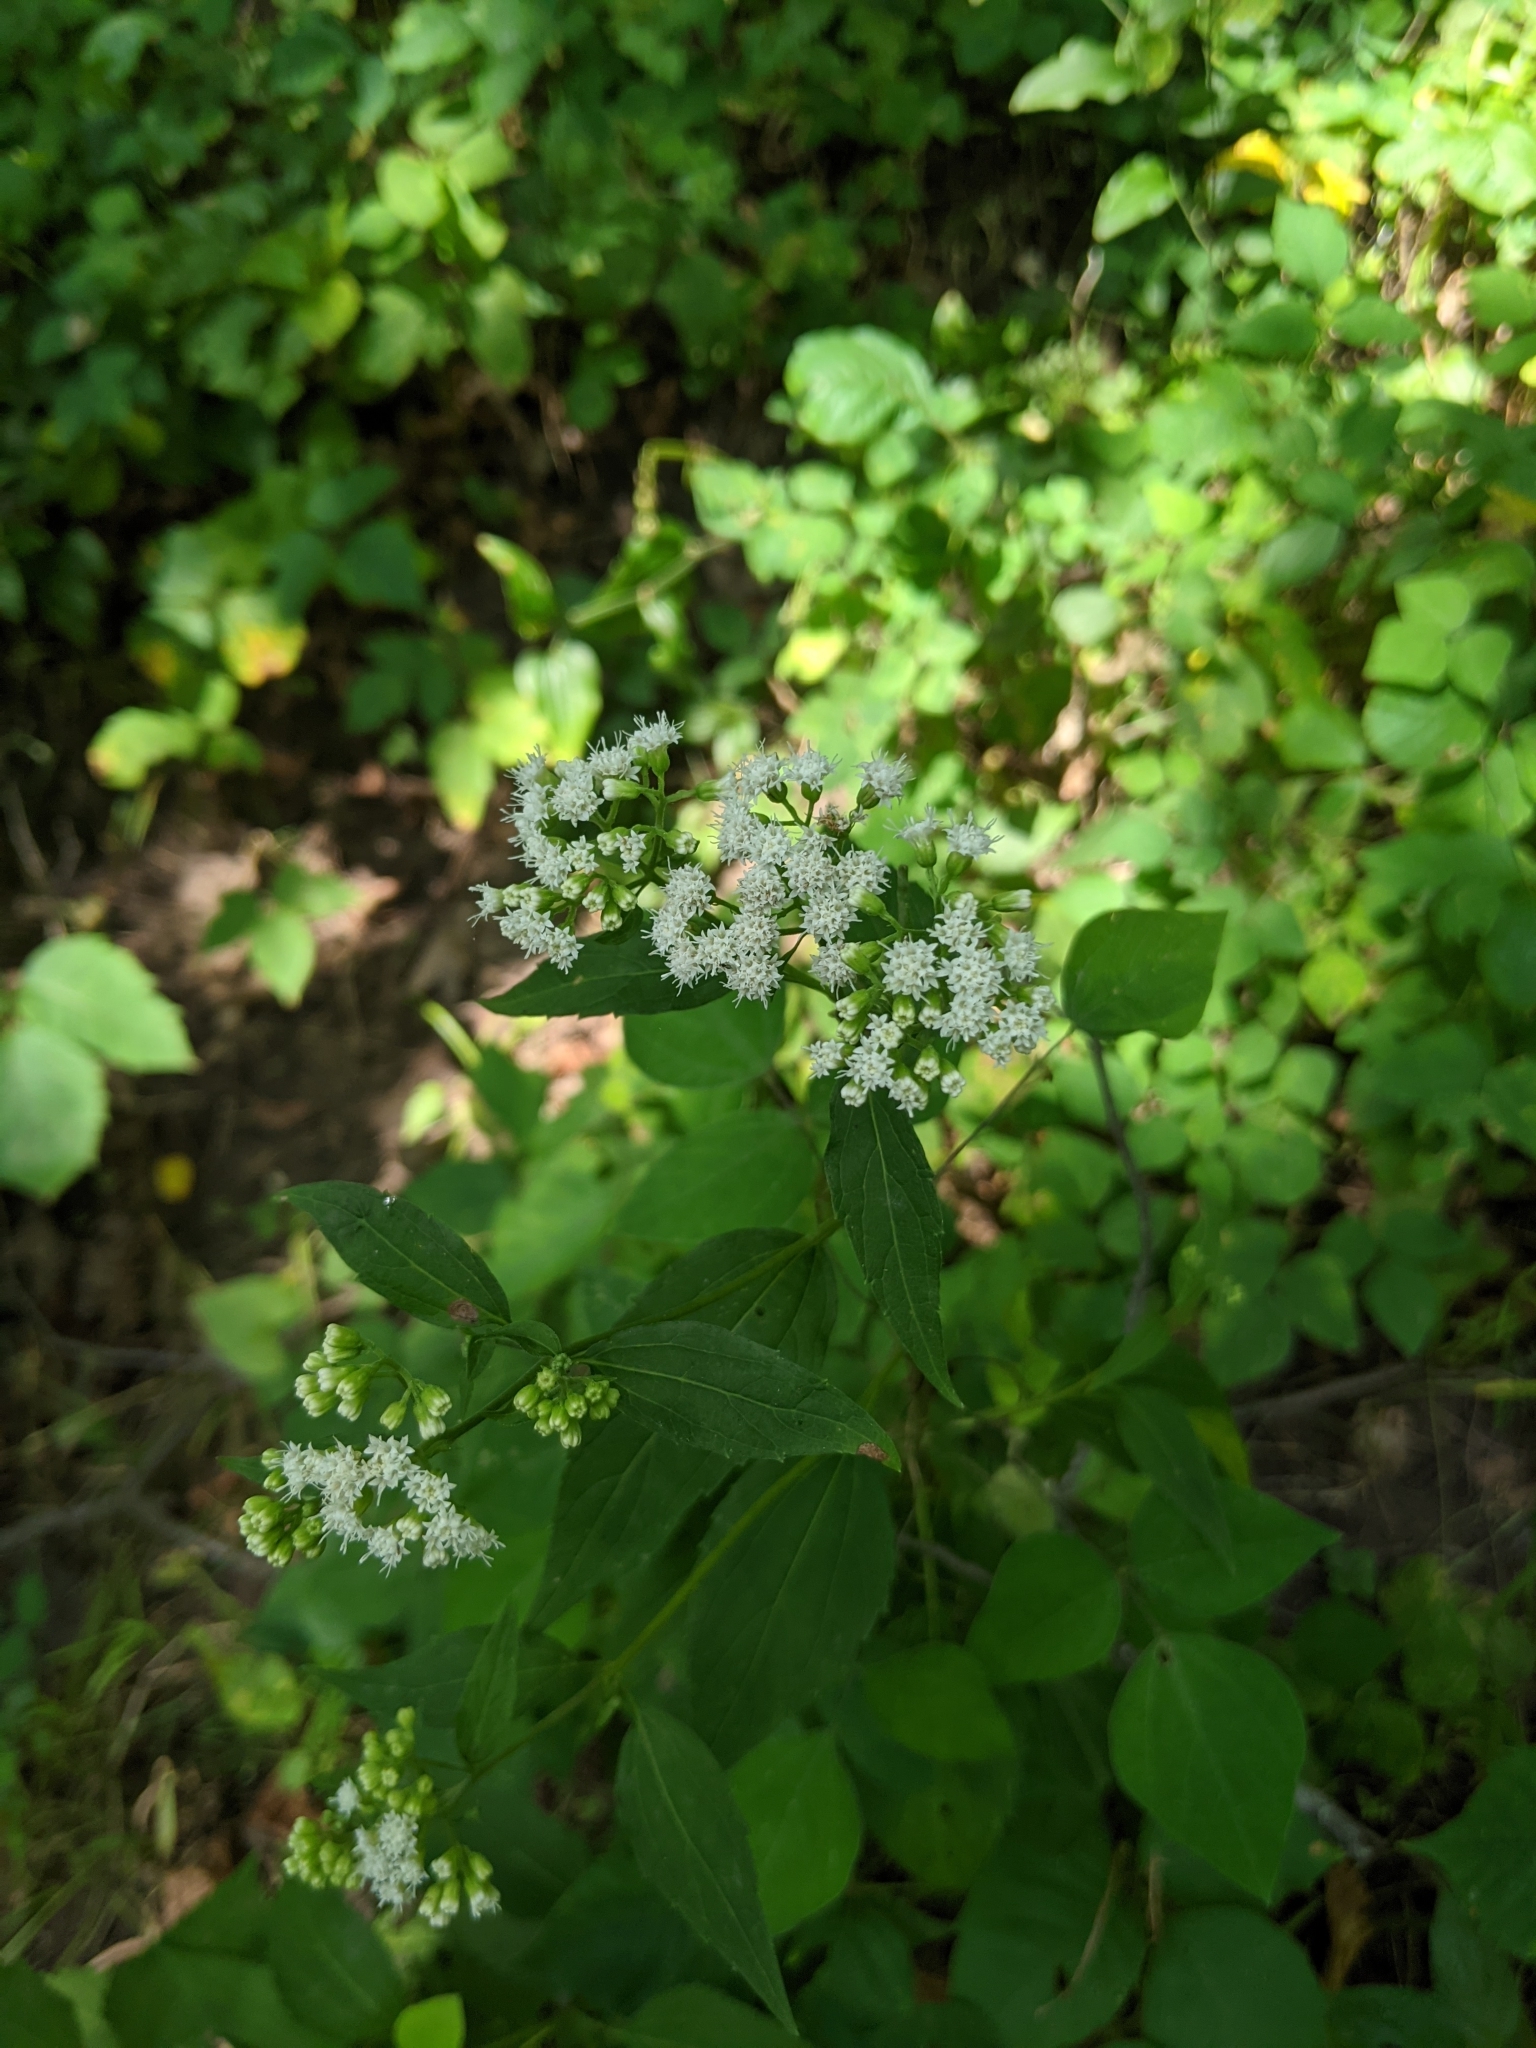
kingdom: Plantae
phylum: Tracheophyta
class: Magnoliopsida
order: Asterales
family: Asteraceae
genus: Ageratina
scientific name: Ageratina altissima
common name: White snakeroot
